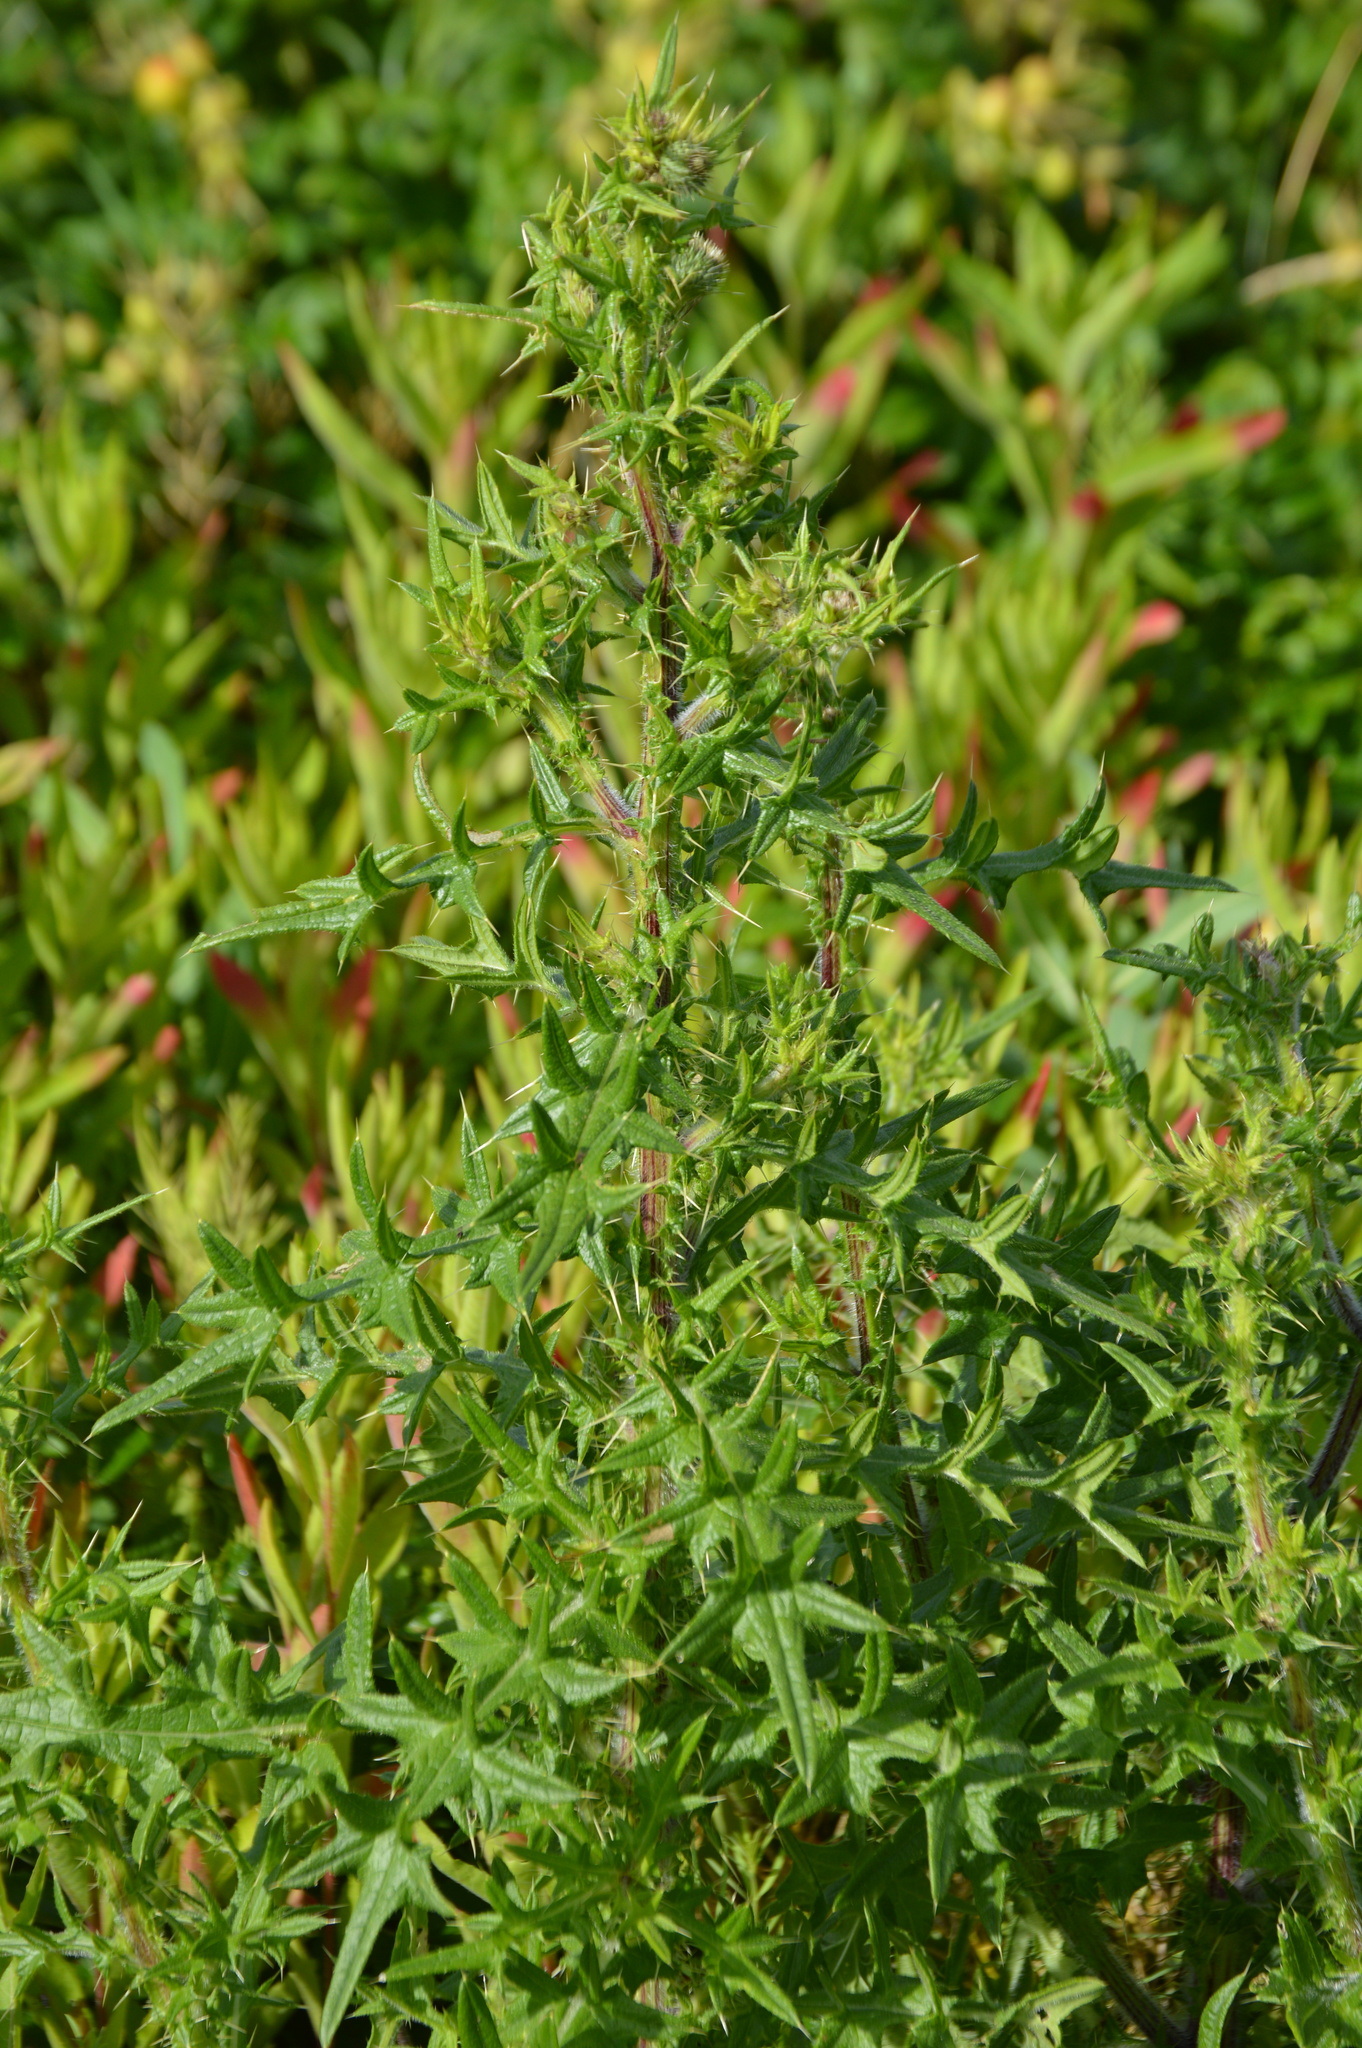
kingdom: Plantae
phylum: Tracheophyta
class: Magnoliopsida
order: Asterales
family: Asteraceae
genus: Cirsium
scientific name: Cirsium vulgare
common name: Bull thistle
